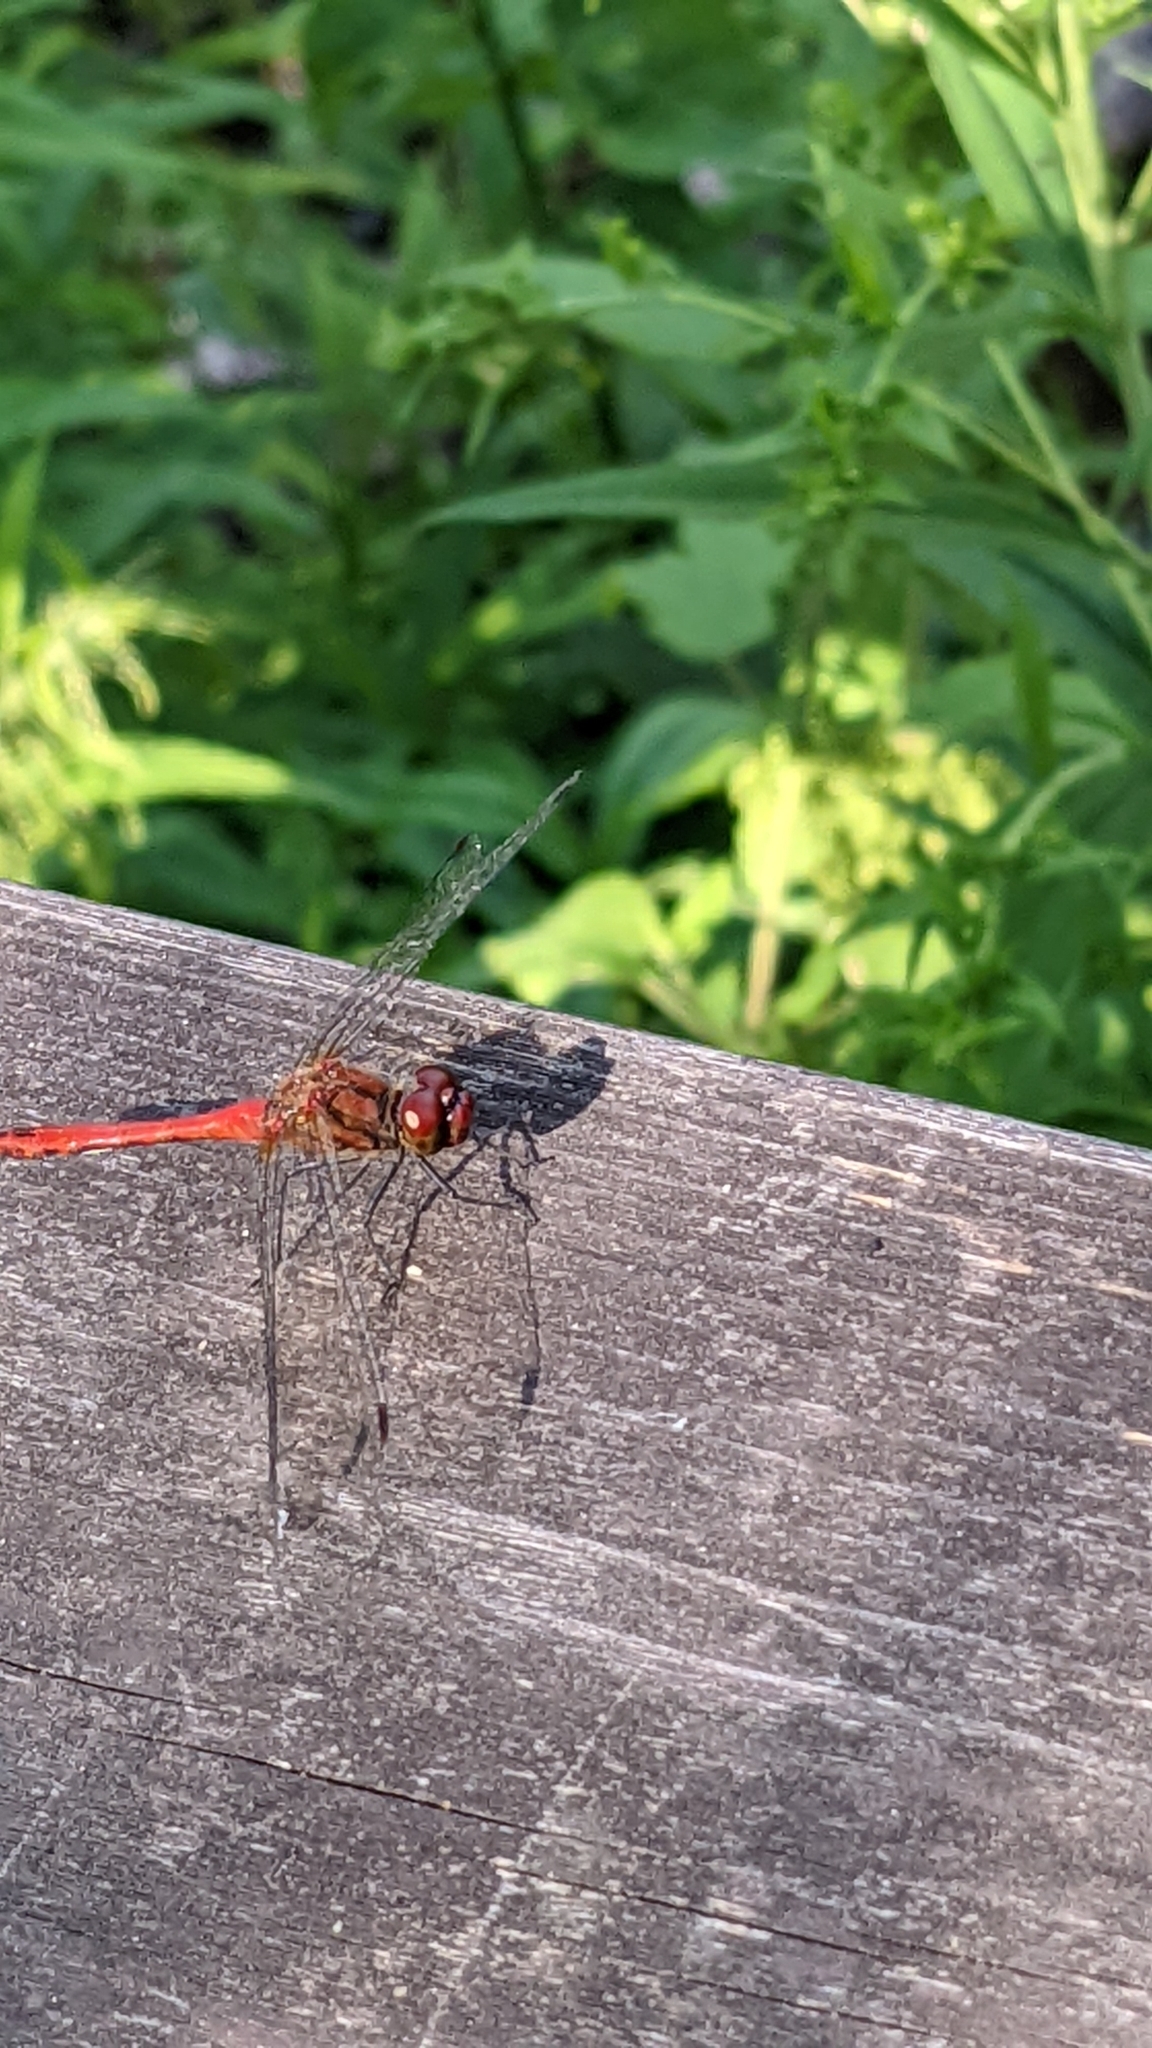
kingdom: Animalia
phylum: Arthropoda
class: Insecta
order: Odonata
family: Libellulidae
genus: Sympetrum
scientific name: Sympetrum sanguineum
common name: Ruddy darter
